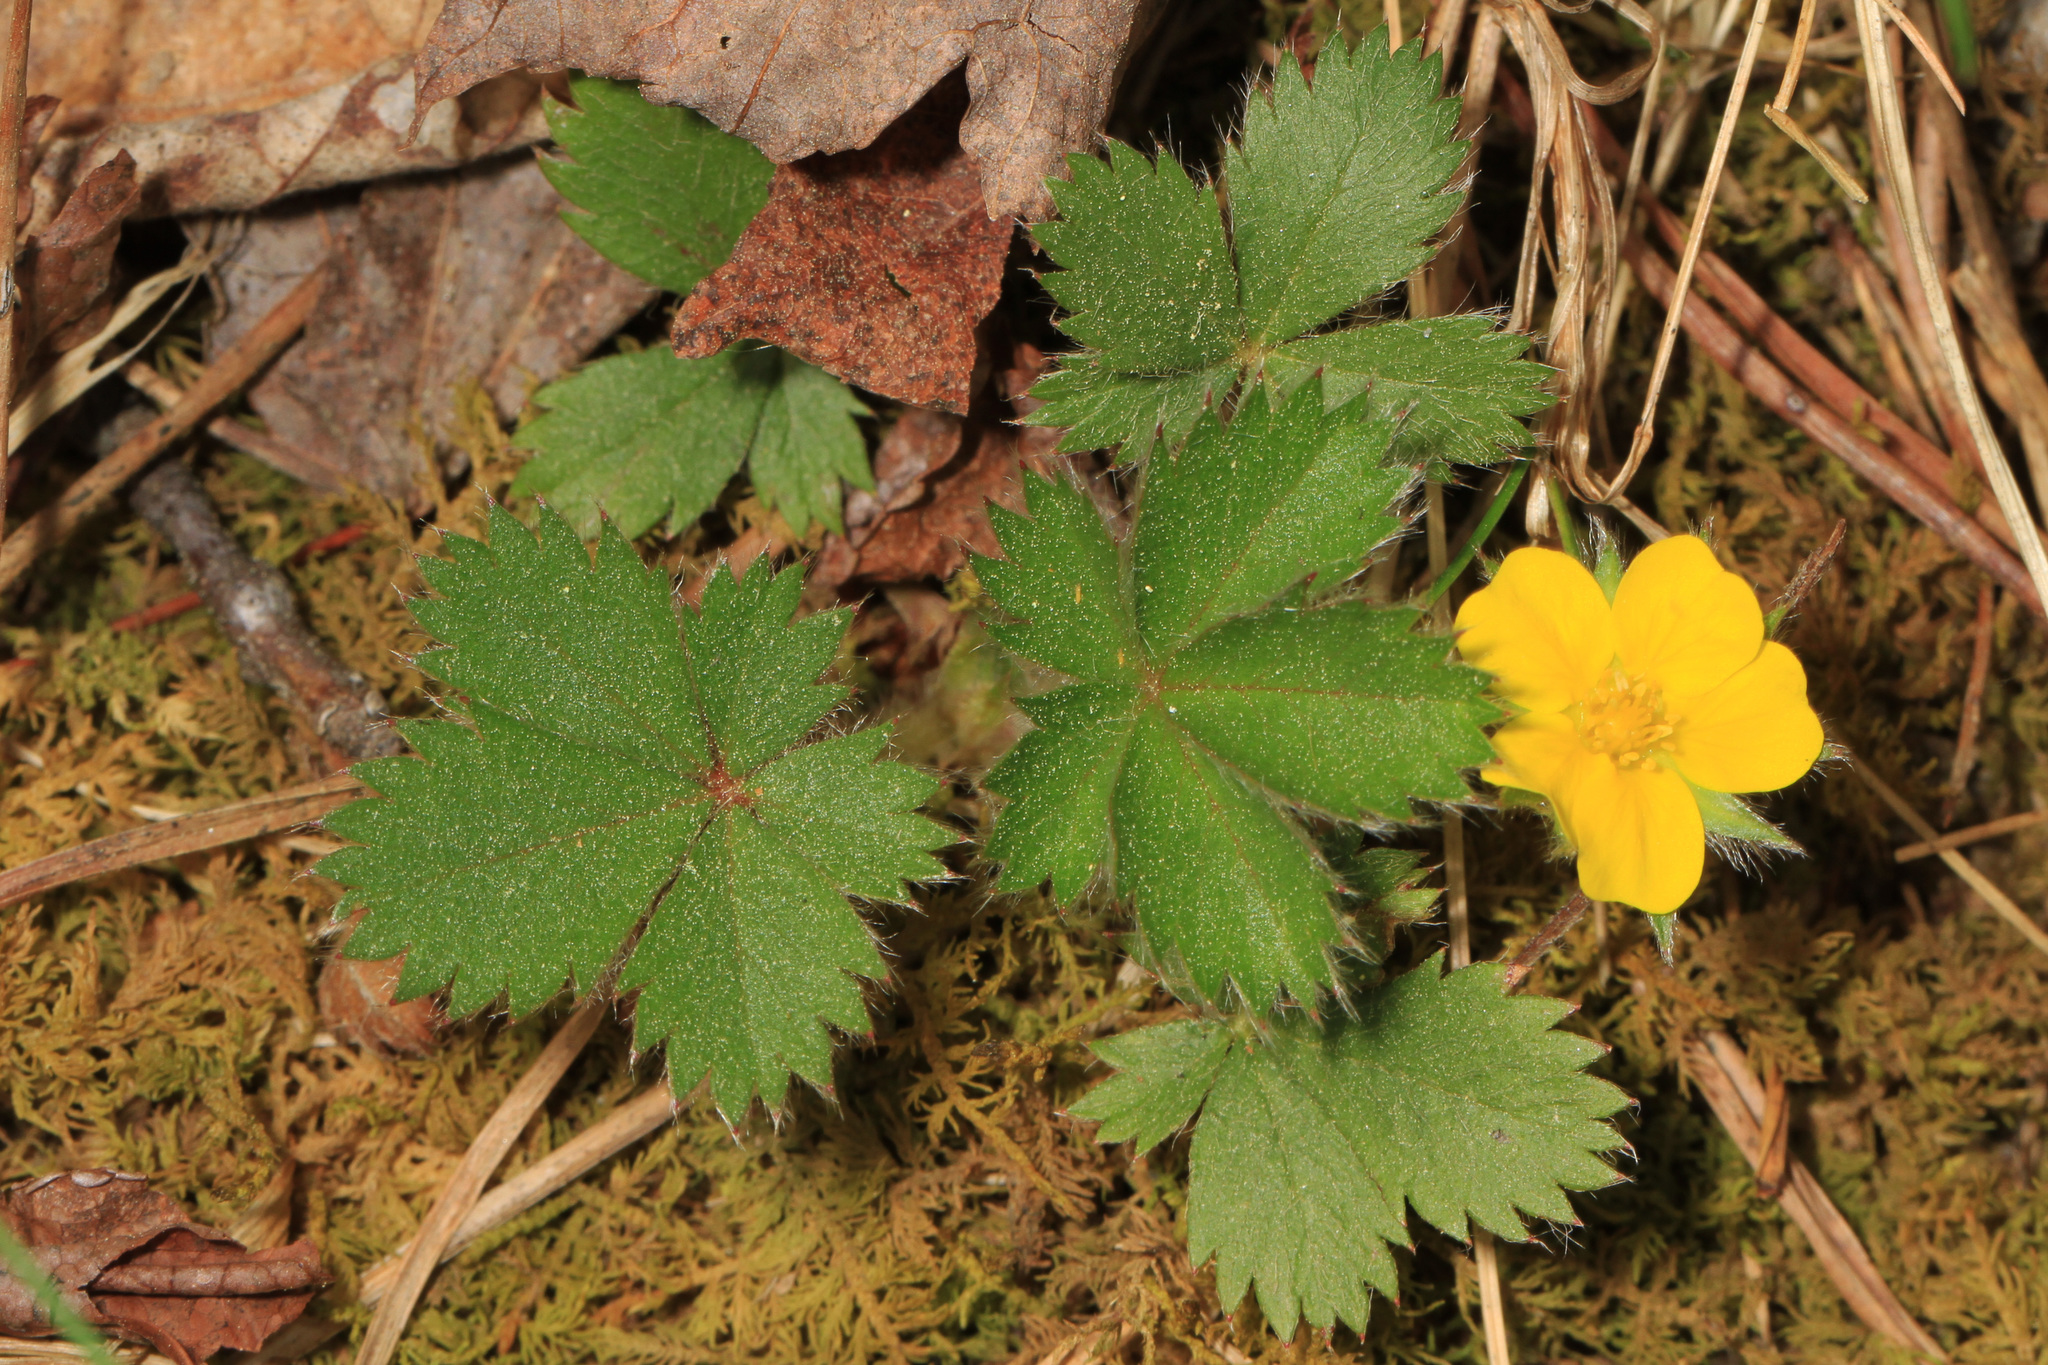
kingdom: Plantae
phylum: Tracheophyta
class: Magnoliopsida
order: Rosales
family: Rosaceae
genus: Potentilla
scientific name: Potentilla canadensis
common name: Canada cinquefoil
